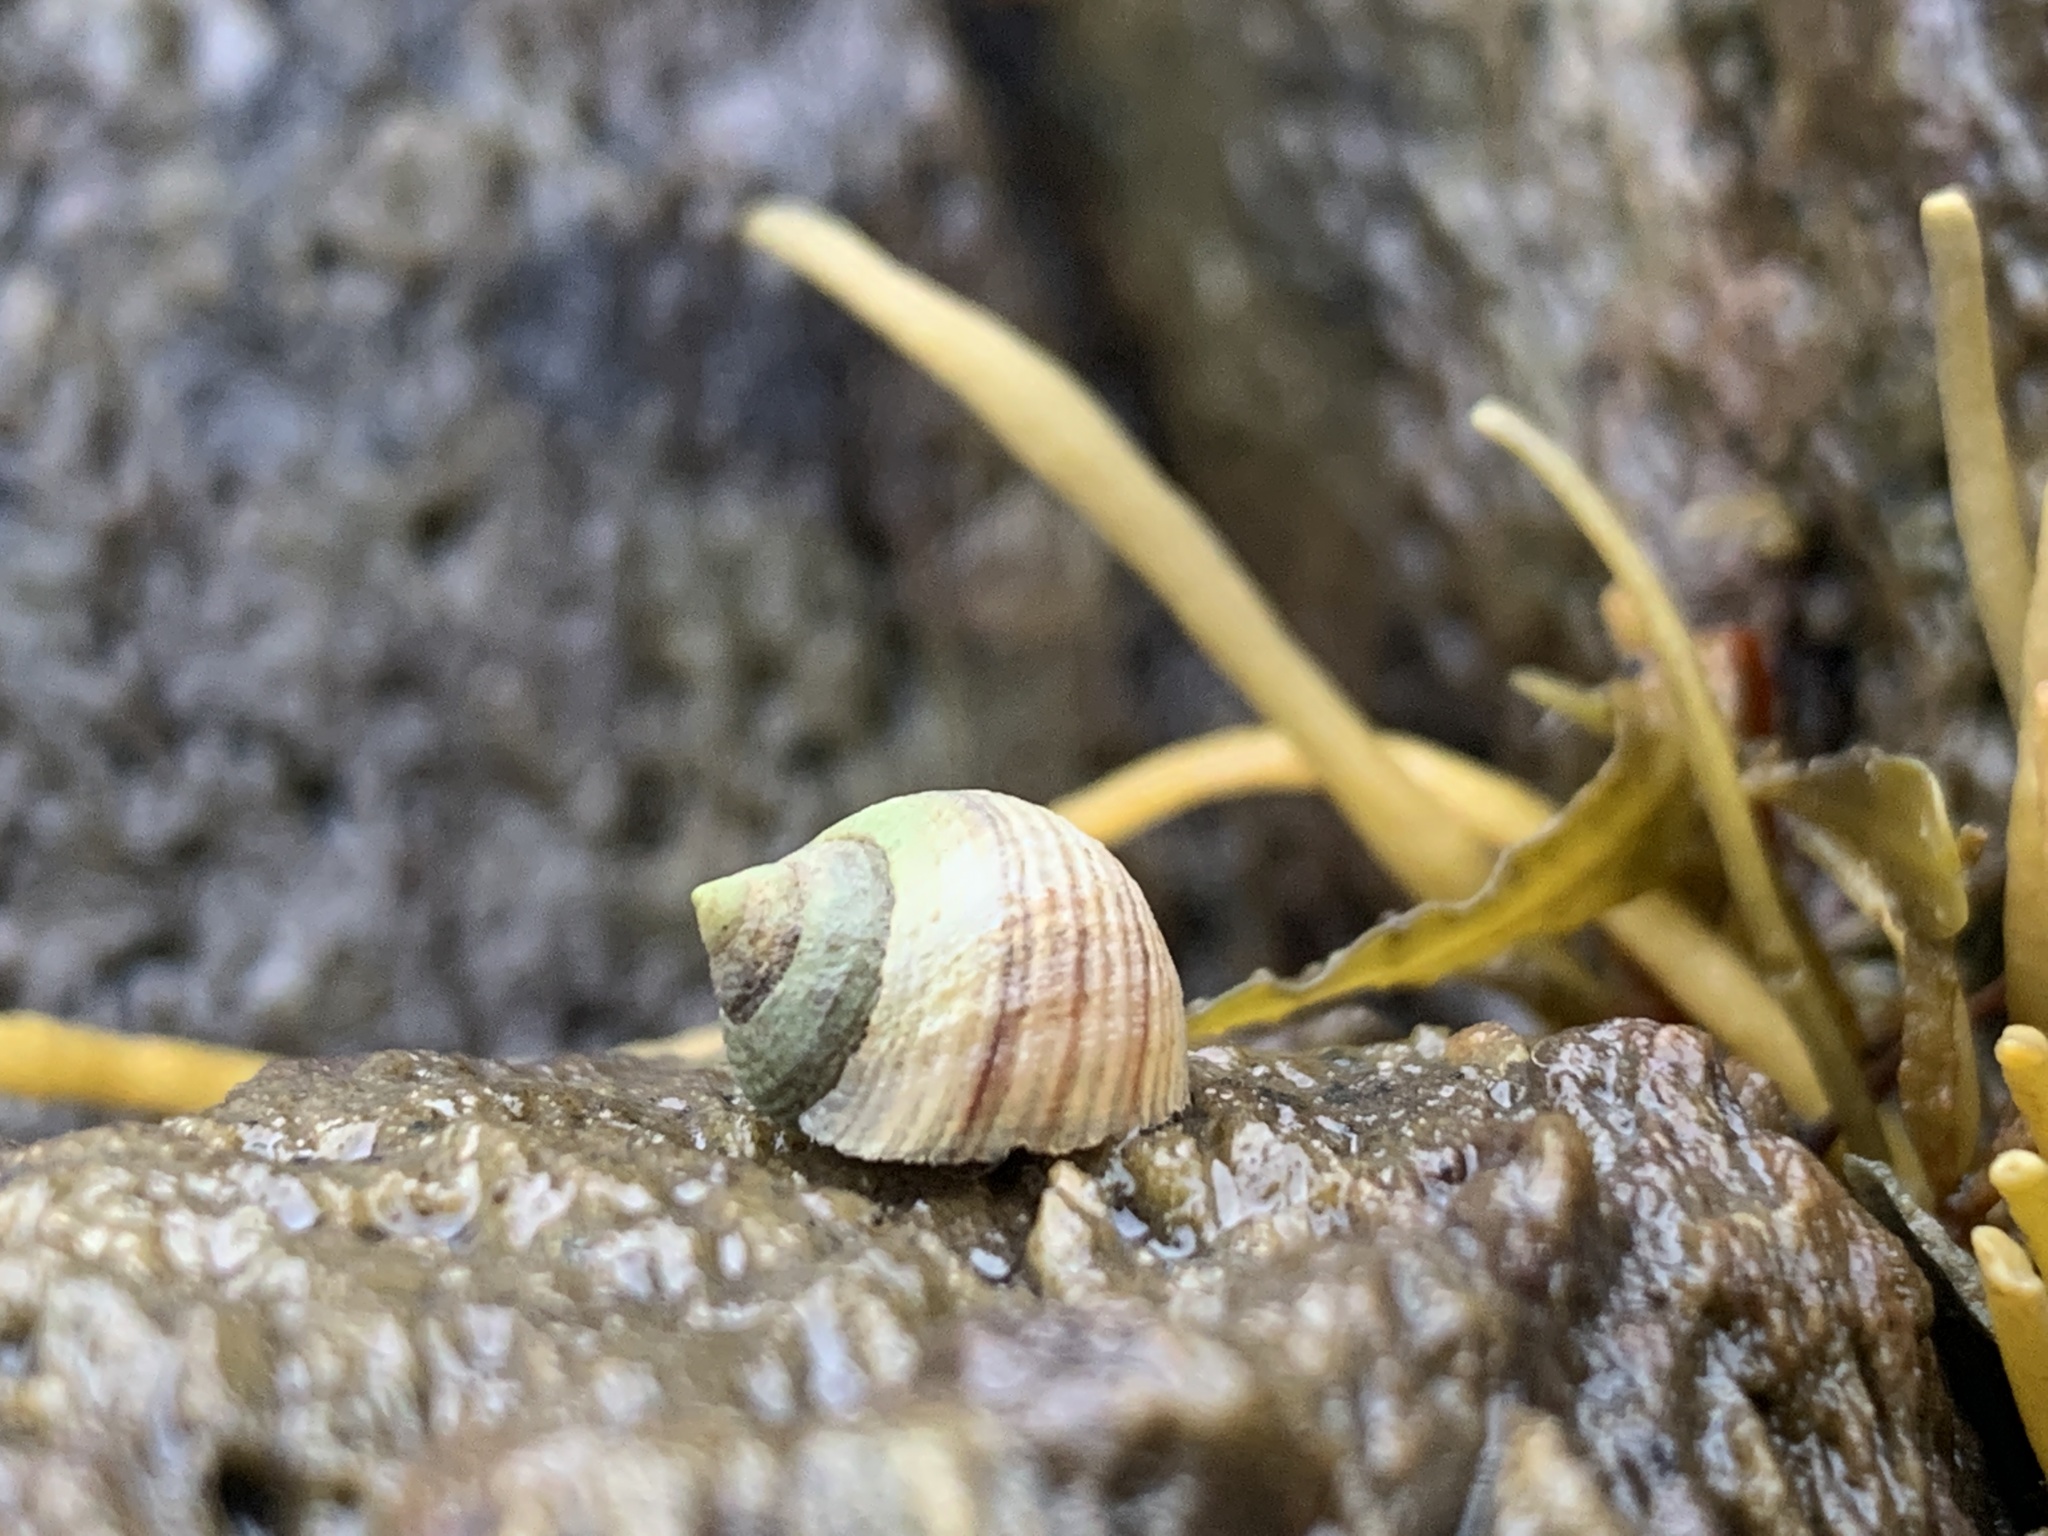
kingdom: Animalia
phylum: Mollusca
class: Gastropoda
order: Littorinimorpha
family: Littorinidae
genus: Littorina
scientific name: Littorina saxatilis
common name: Black-lined periwinkle
